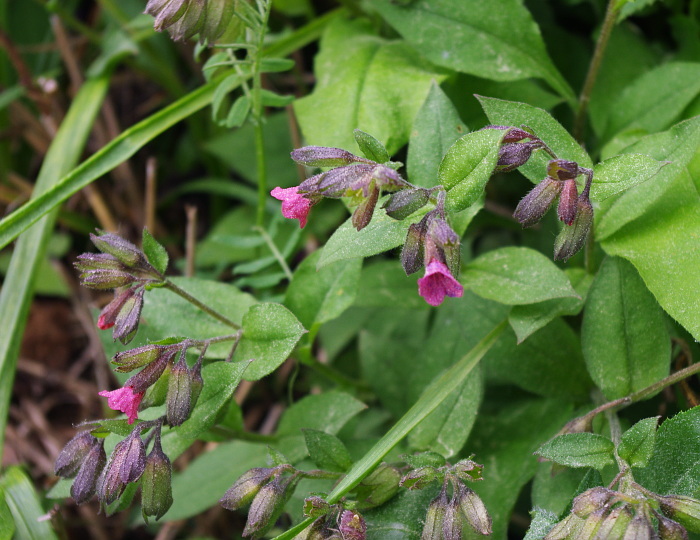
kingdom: Plantae
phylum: Tracheophyta
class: Magnoliopsida
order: Boraginales
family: Boraginaceae
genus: Pulmonaria
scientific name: Pulmonaria obscura
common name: Suffolk lungwort
